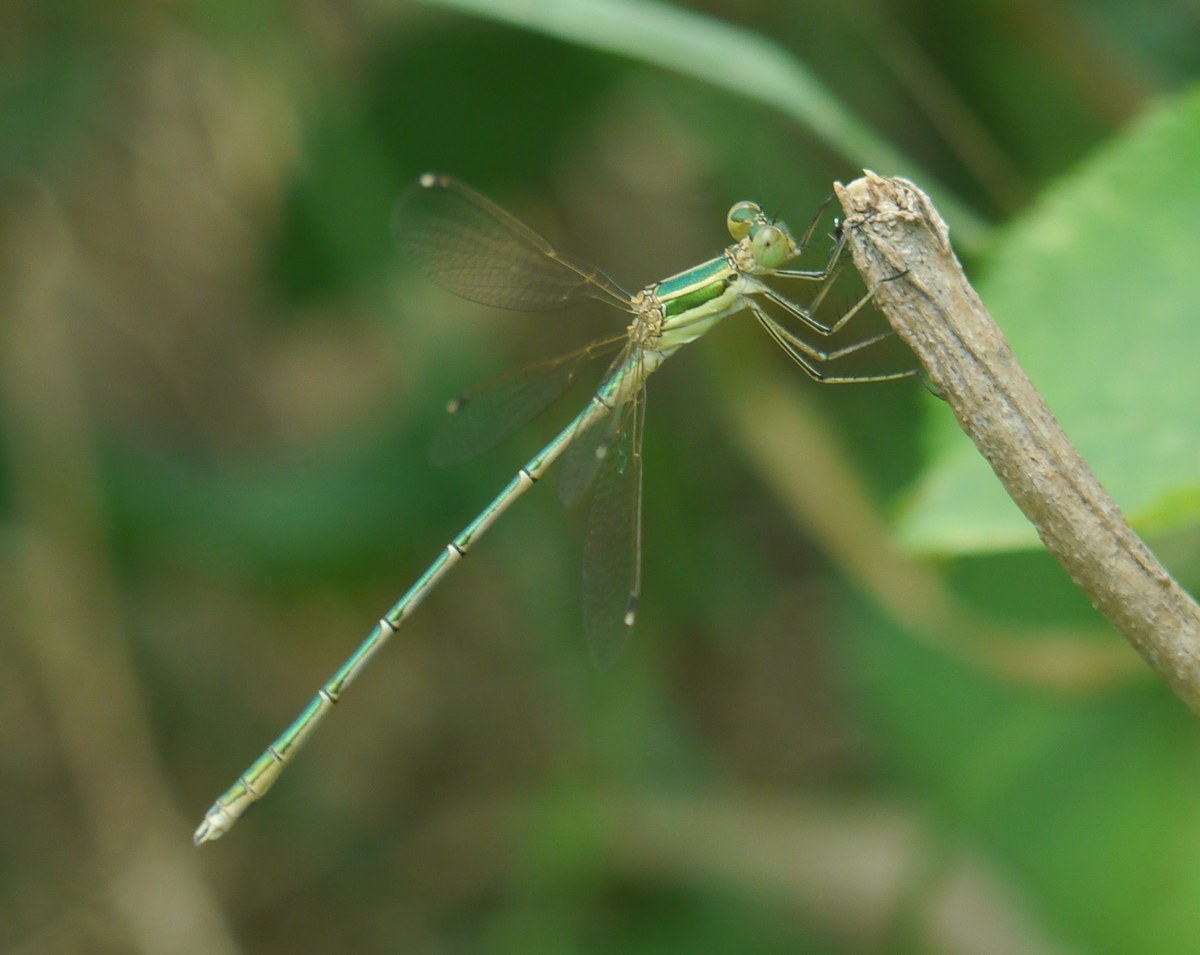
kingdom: Animalia
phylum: Arthropoda
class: Insecta
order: Odonata
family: Lestidae
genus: Lestes
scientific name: Lestes barbarus
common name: Migrant spreadwing
